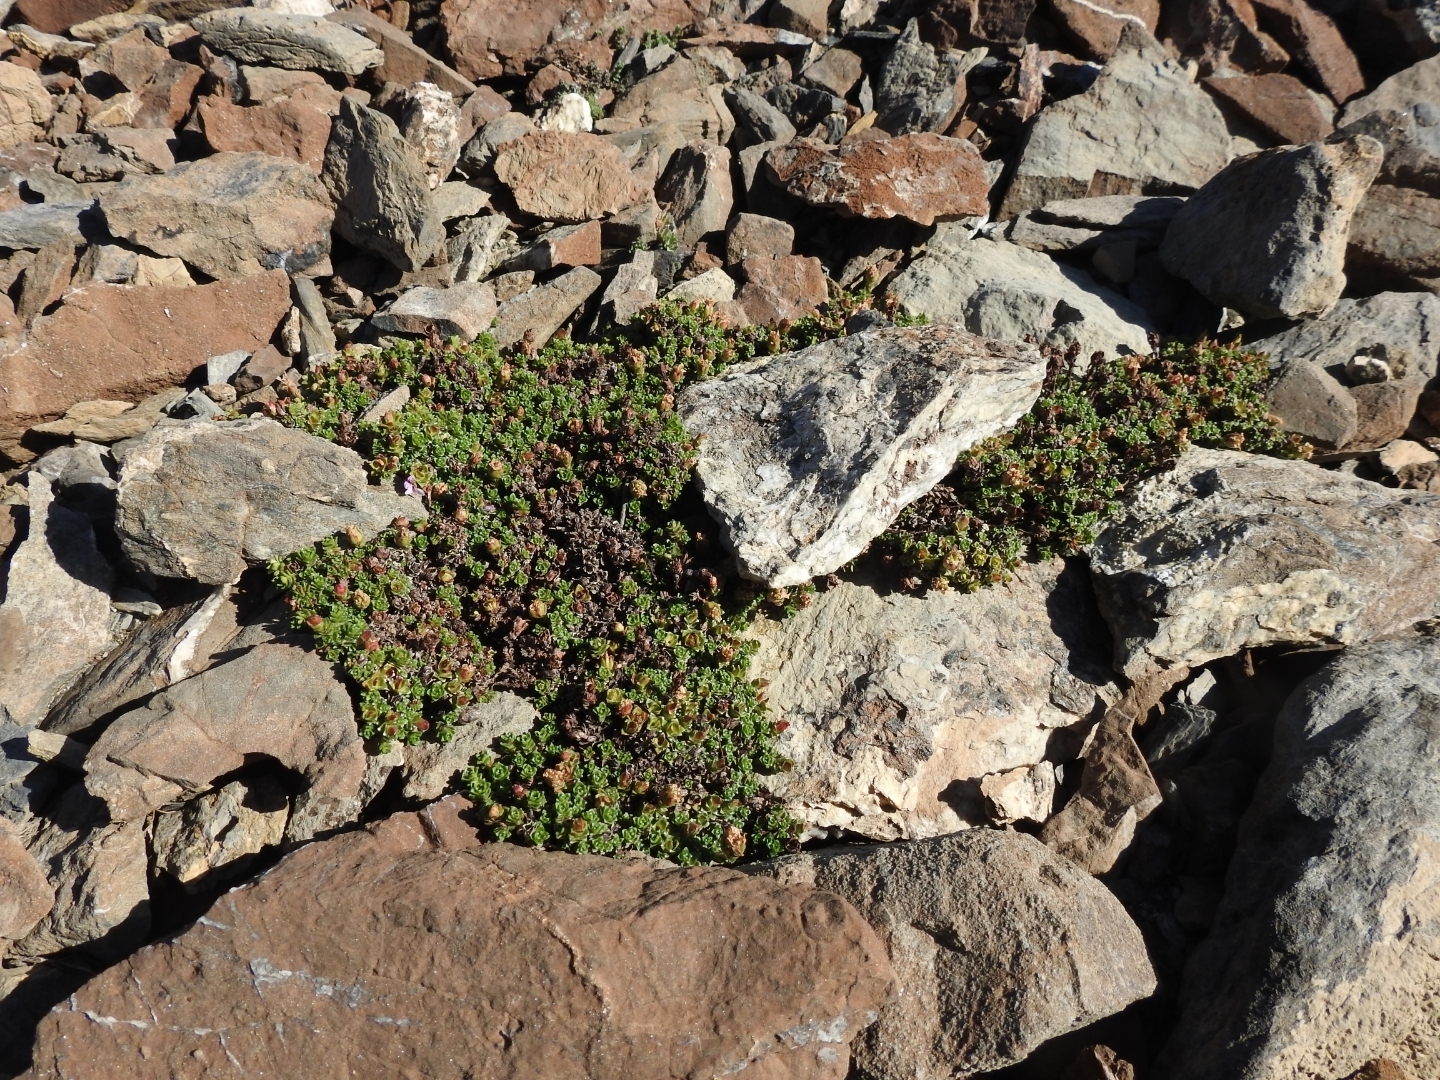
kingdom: Plantae
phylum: Tracheophyta
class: Magnoliopsida
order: Saxifragales
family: Saxifragaceae
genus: Saxifraga
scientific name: Saxifraga oppositifolia
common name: Purple saxifrage
